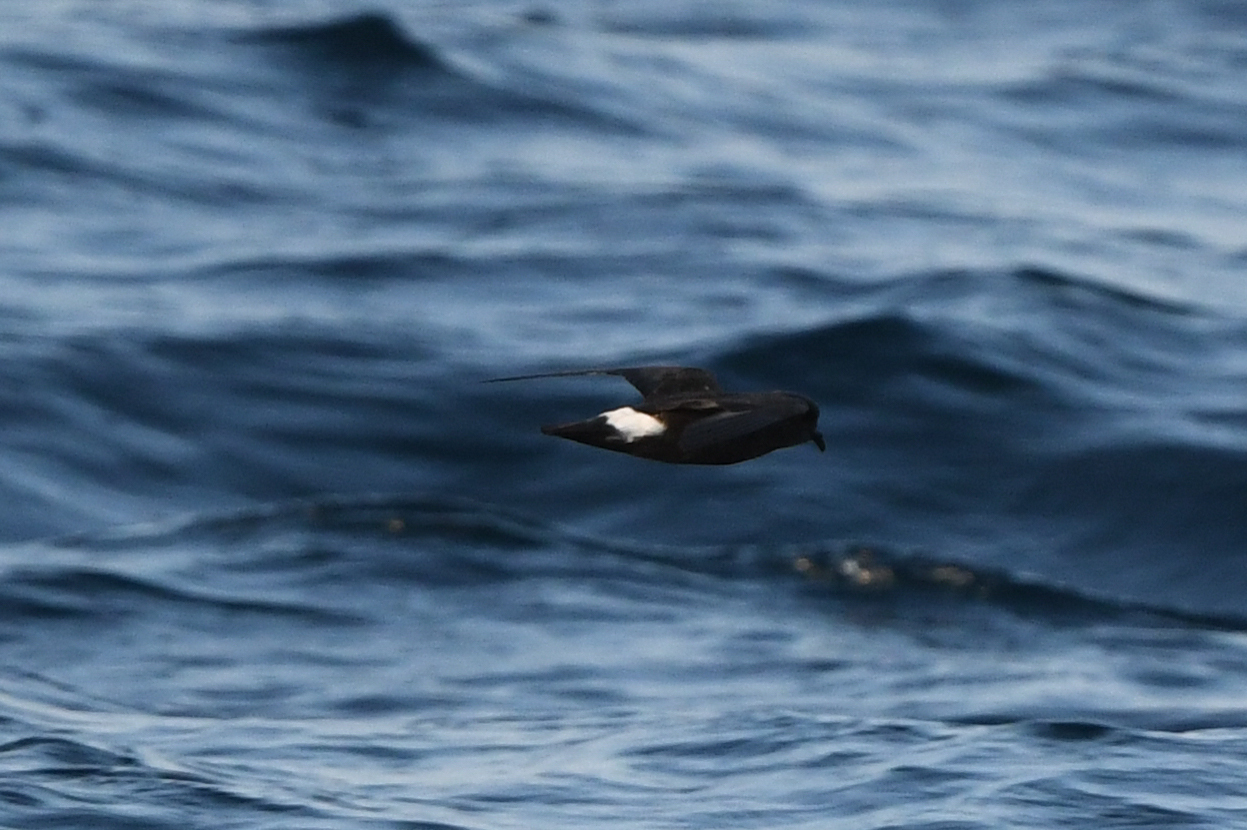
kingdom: Animalia
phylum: Chordata
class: Aves
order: Procellariiformes
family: Hydrobatidae
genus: Hydrobates
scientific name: Hydrobates pelagicus
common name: European storm-petrel
